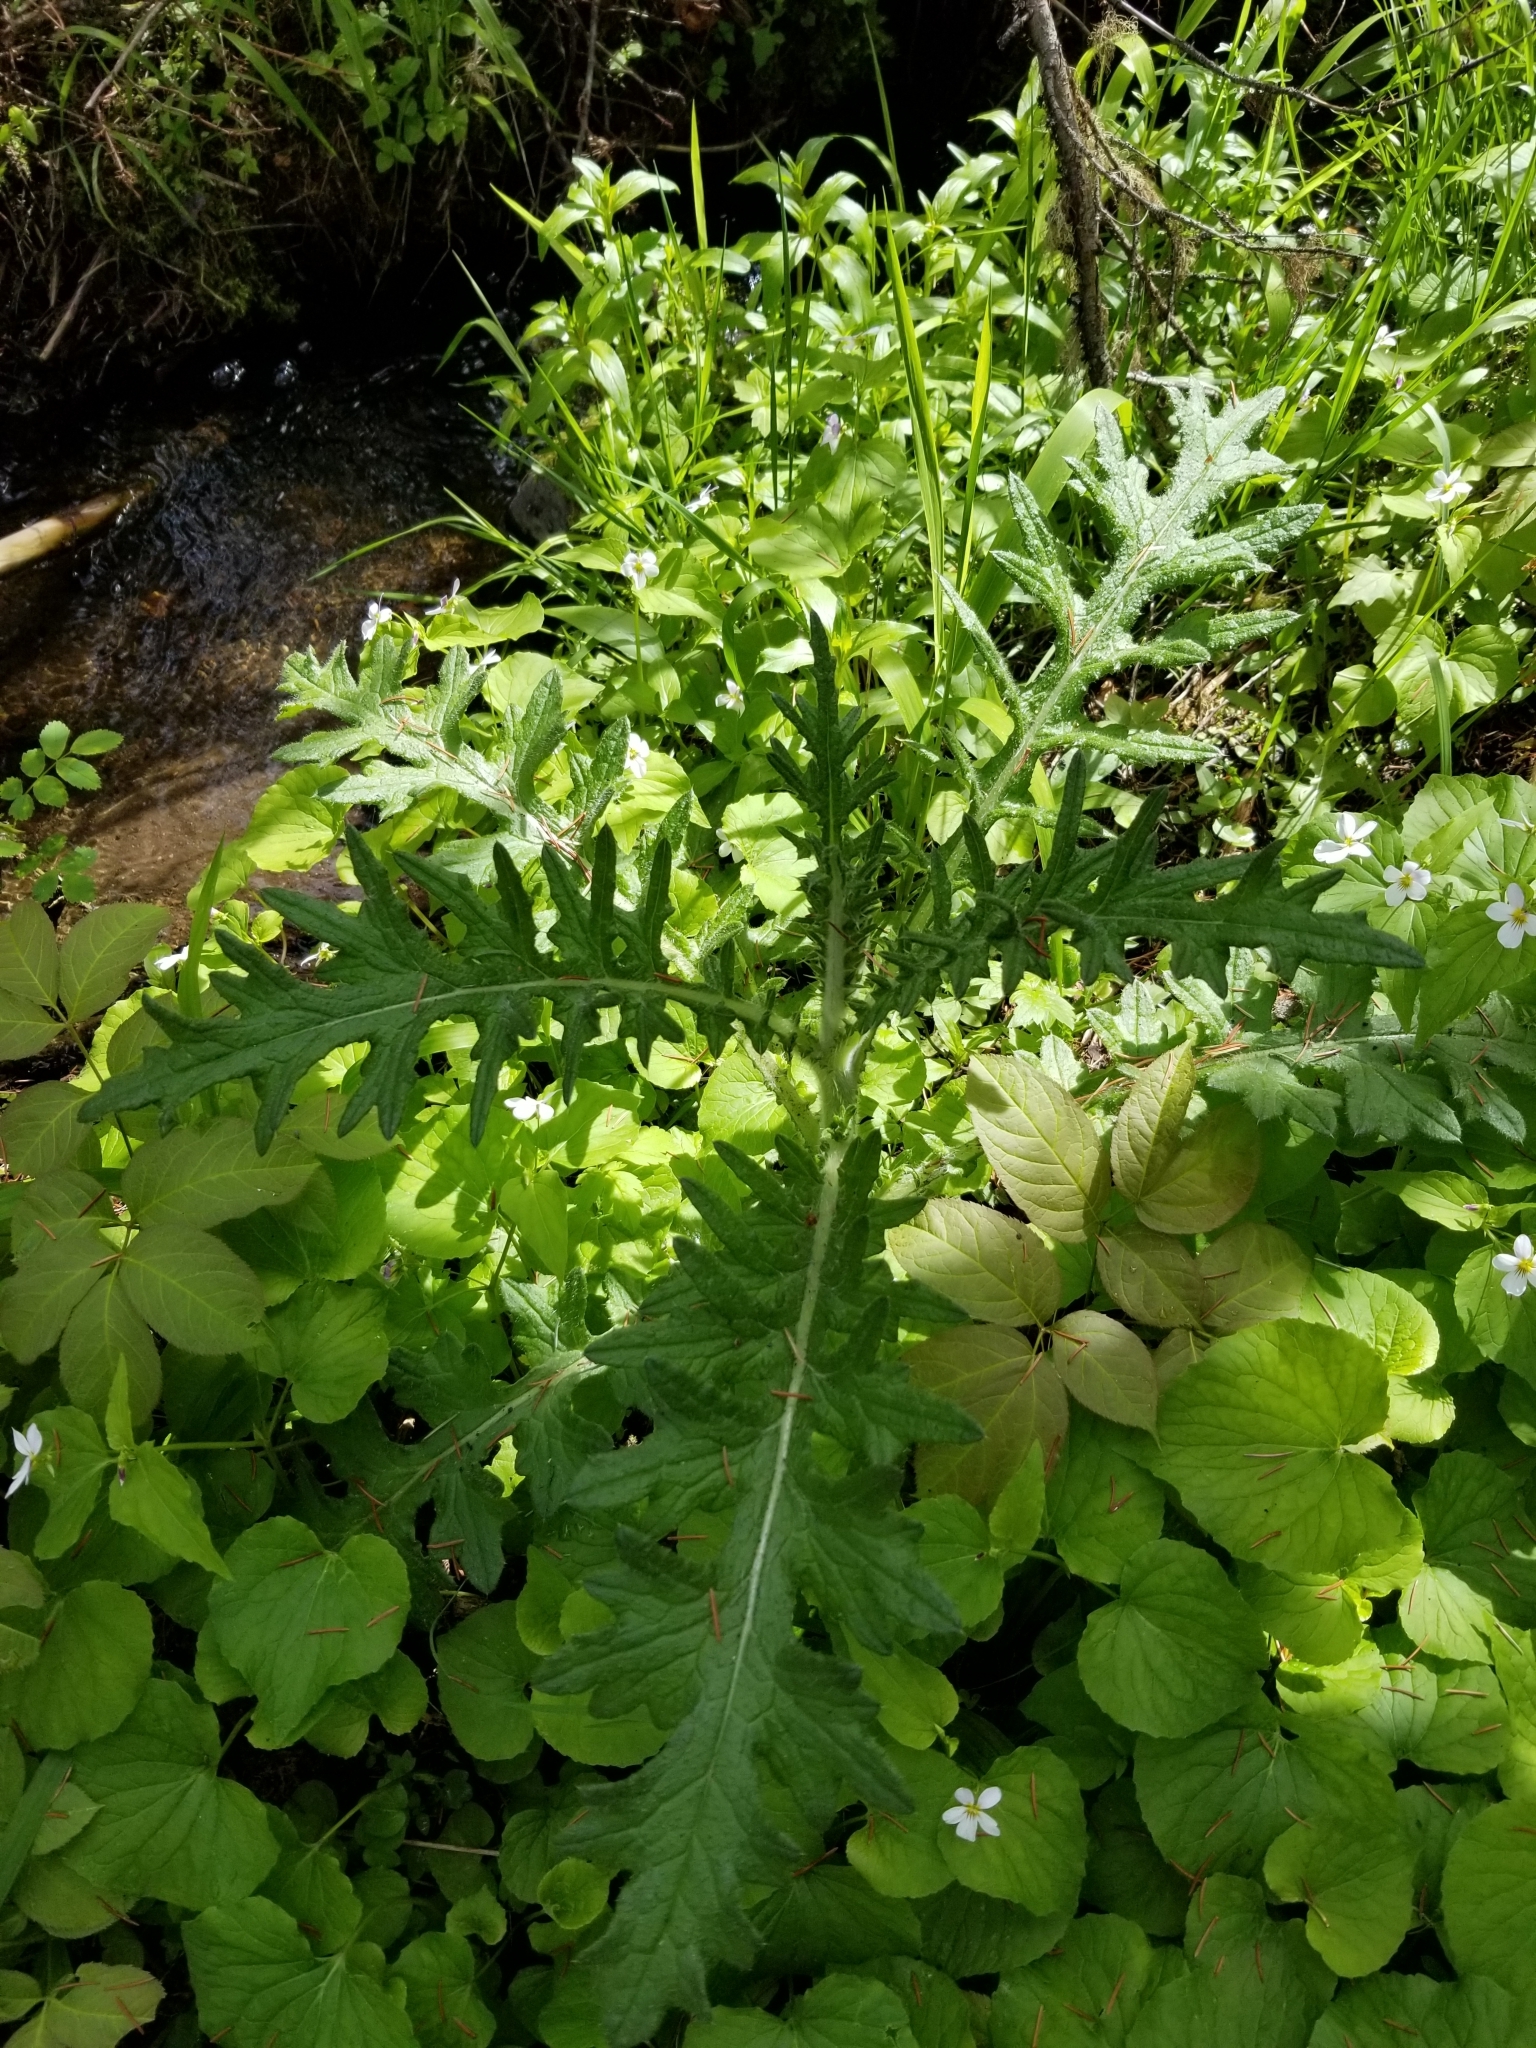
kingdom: Plantae
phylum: Tracheophyta
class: Magnoliopsida
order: Asterales
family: Asteraceae
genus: Cirsium
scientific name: Cirsium vulgare
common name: Bull thistle
